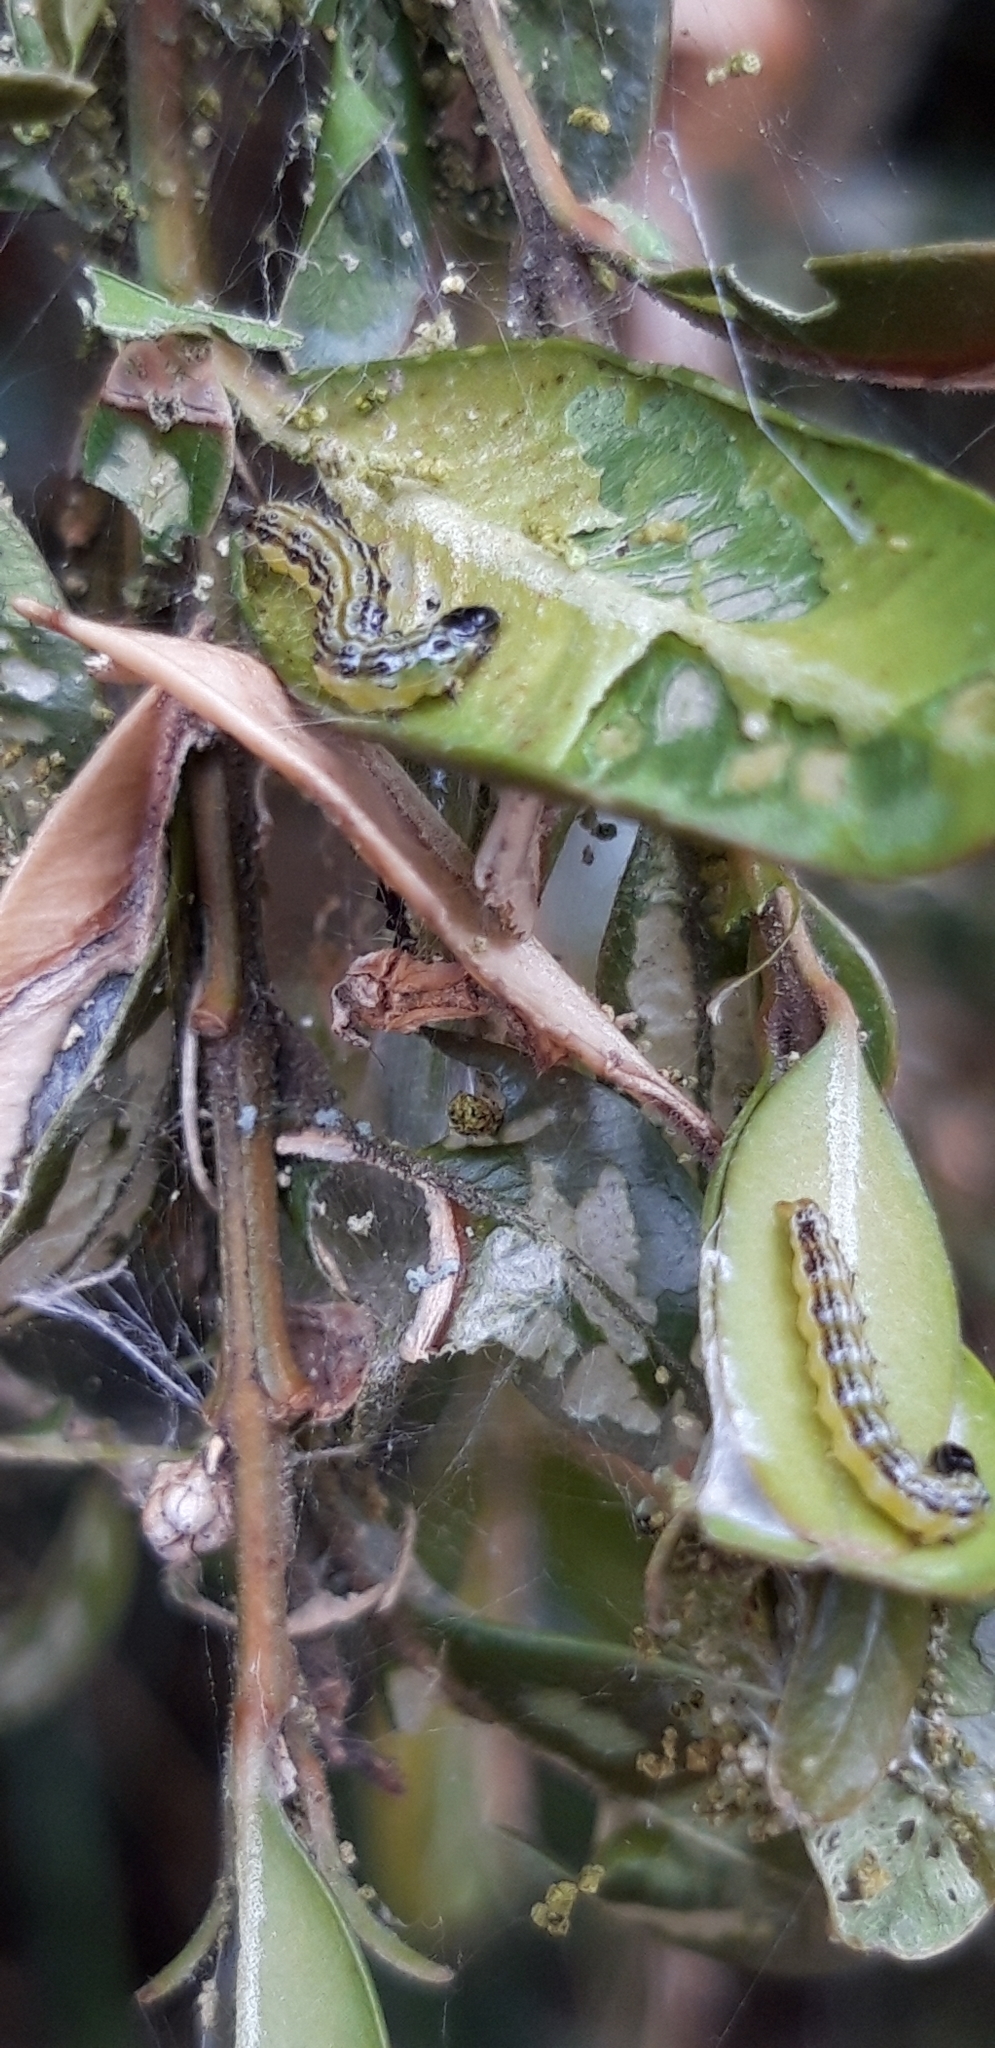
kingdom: Animalia
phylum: Arthropoda
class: Insecta
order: Lepidoptera
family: Crambidae
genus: Cydalima
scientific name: Cydalima perspectalis
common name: Box tree moth
